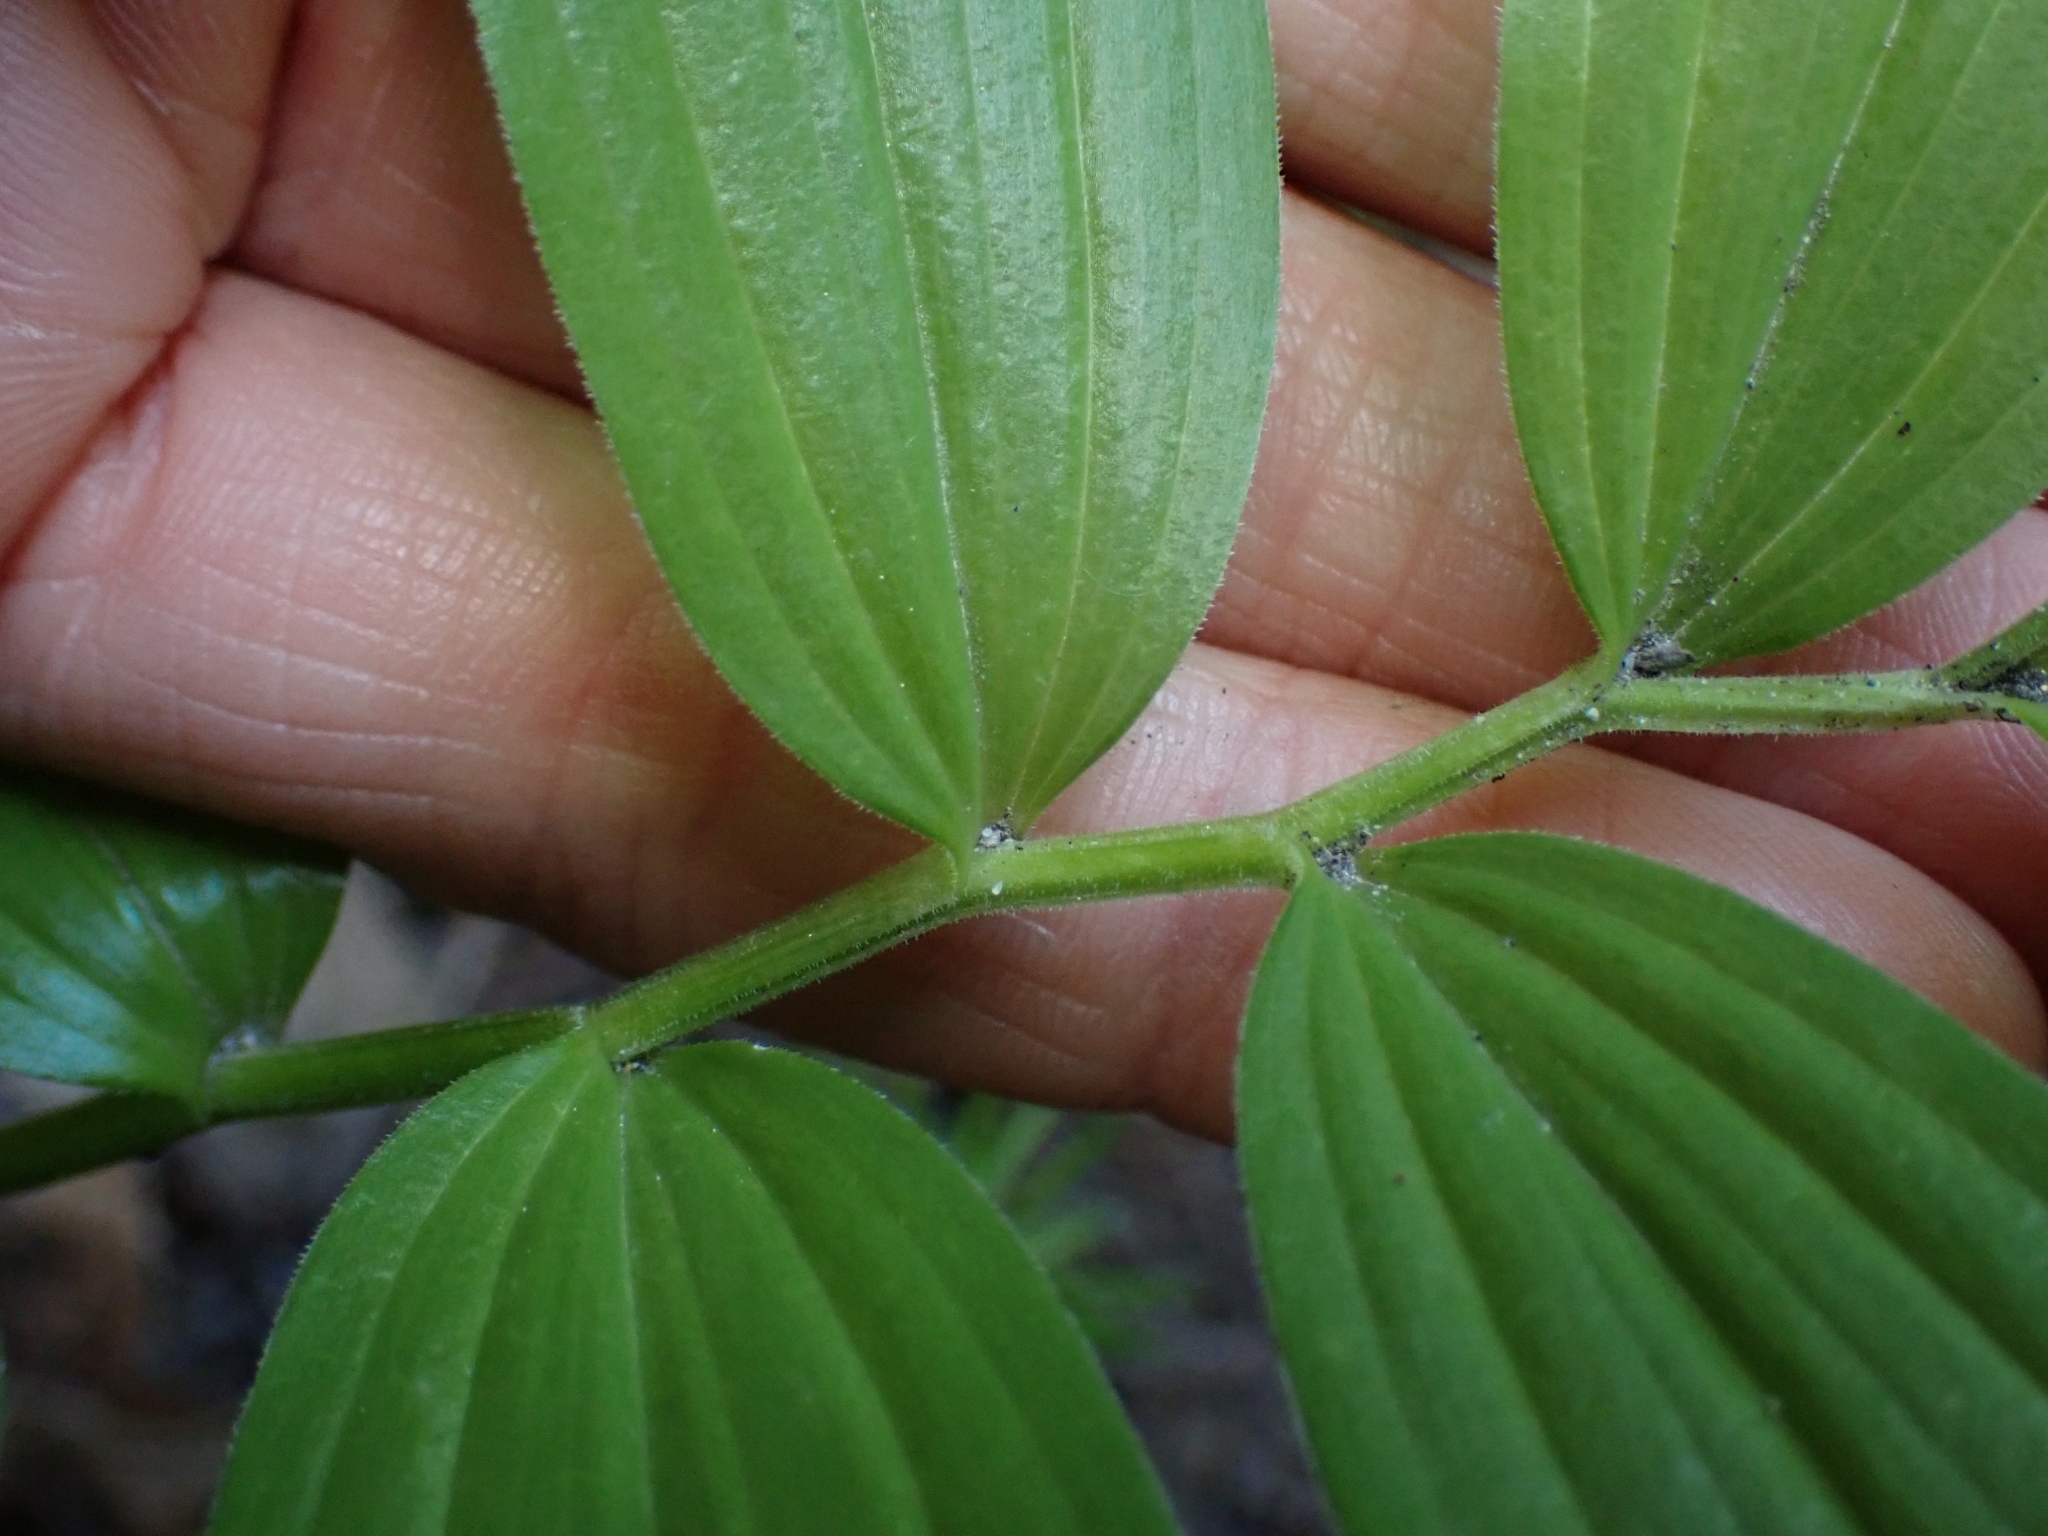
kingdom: Plantae
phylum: Tracheophyta
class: Liliopsida
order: Asparagales
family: Asparagaceae
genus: Maianthemum
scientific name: Maianthemum stellatum
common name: Little false solomon's seal
